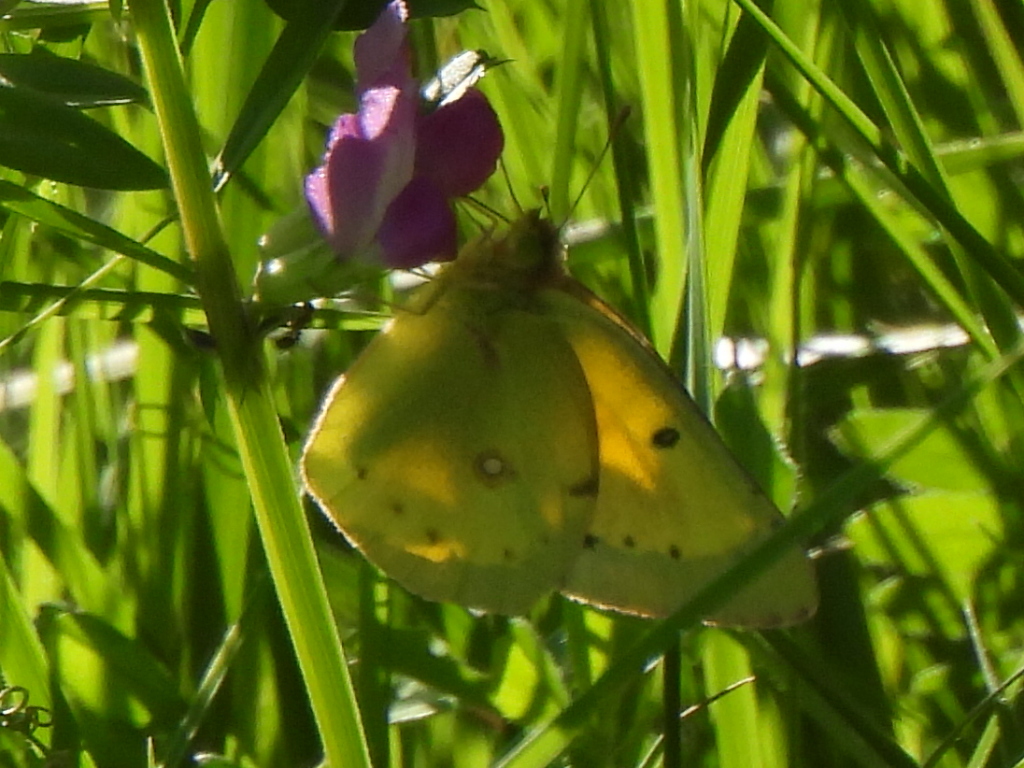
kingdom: Animalia
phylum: Arthropoda
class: Insecta
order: Lepidoptera
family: Pieridae
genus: Colias
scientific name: Colias eurytheme
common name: Alfalfa butterfly
